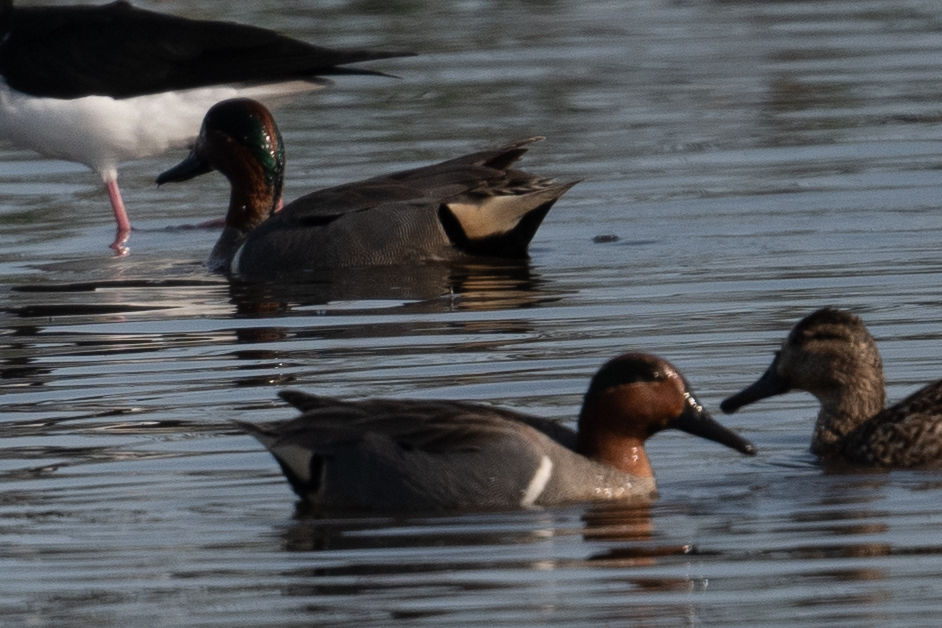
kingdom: Animalia
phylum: Chordata
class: Aves
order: Anseriformes
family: Anatidae
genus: Anas
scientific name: Anas crecca
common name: Eurasian teal
